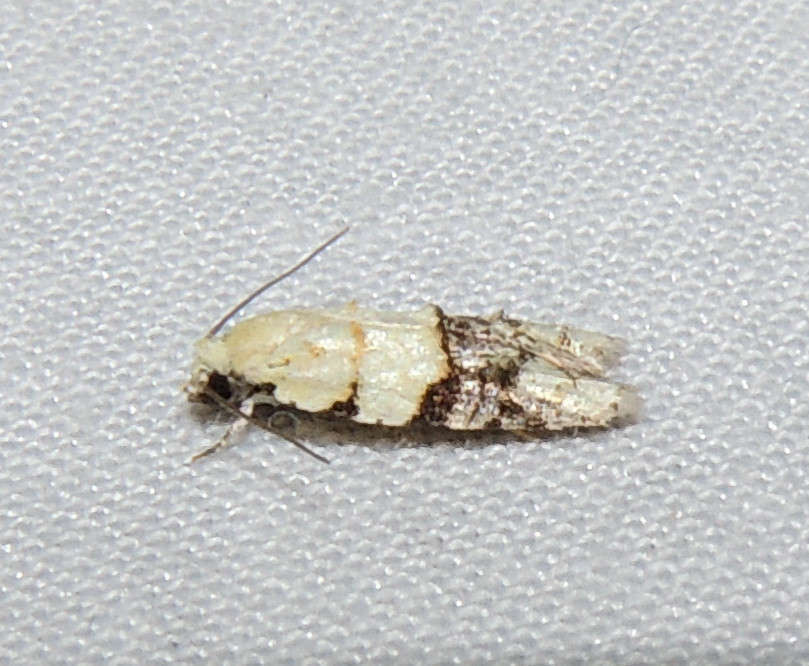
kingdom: Animalia
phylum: Arthropoda
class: Insecta
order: Lepidoptera
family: Tortricidae
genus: Tracholena
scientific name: Tracholena sulfurosa
